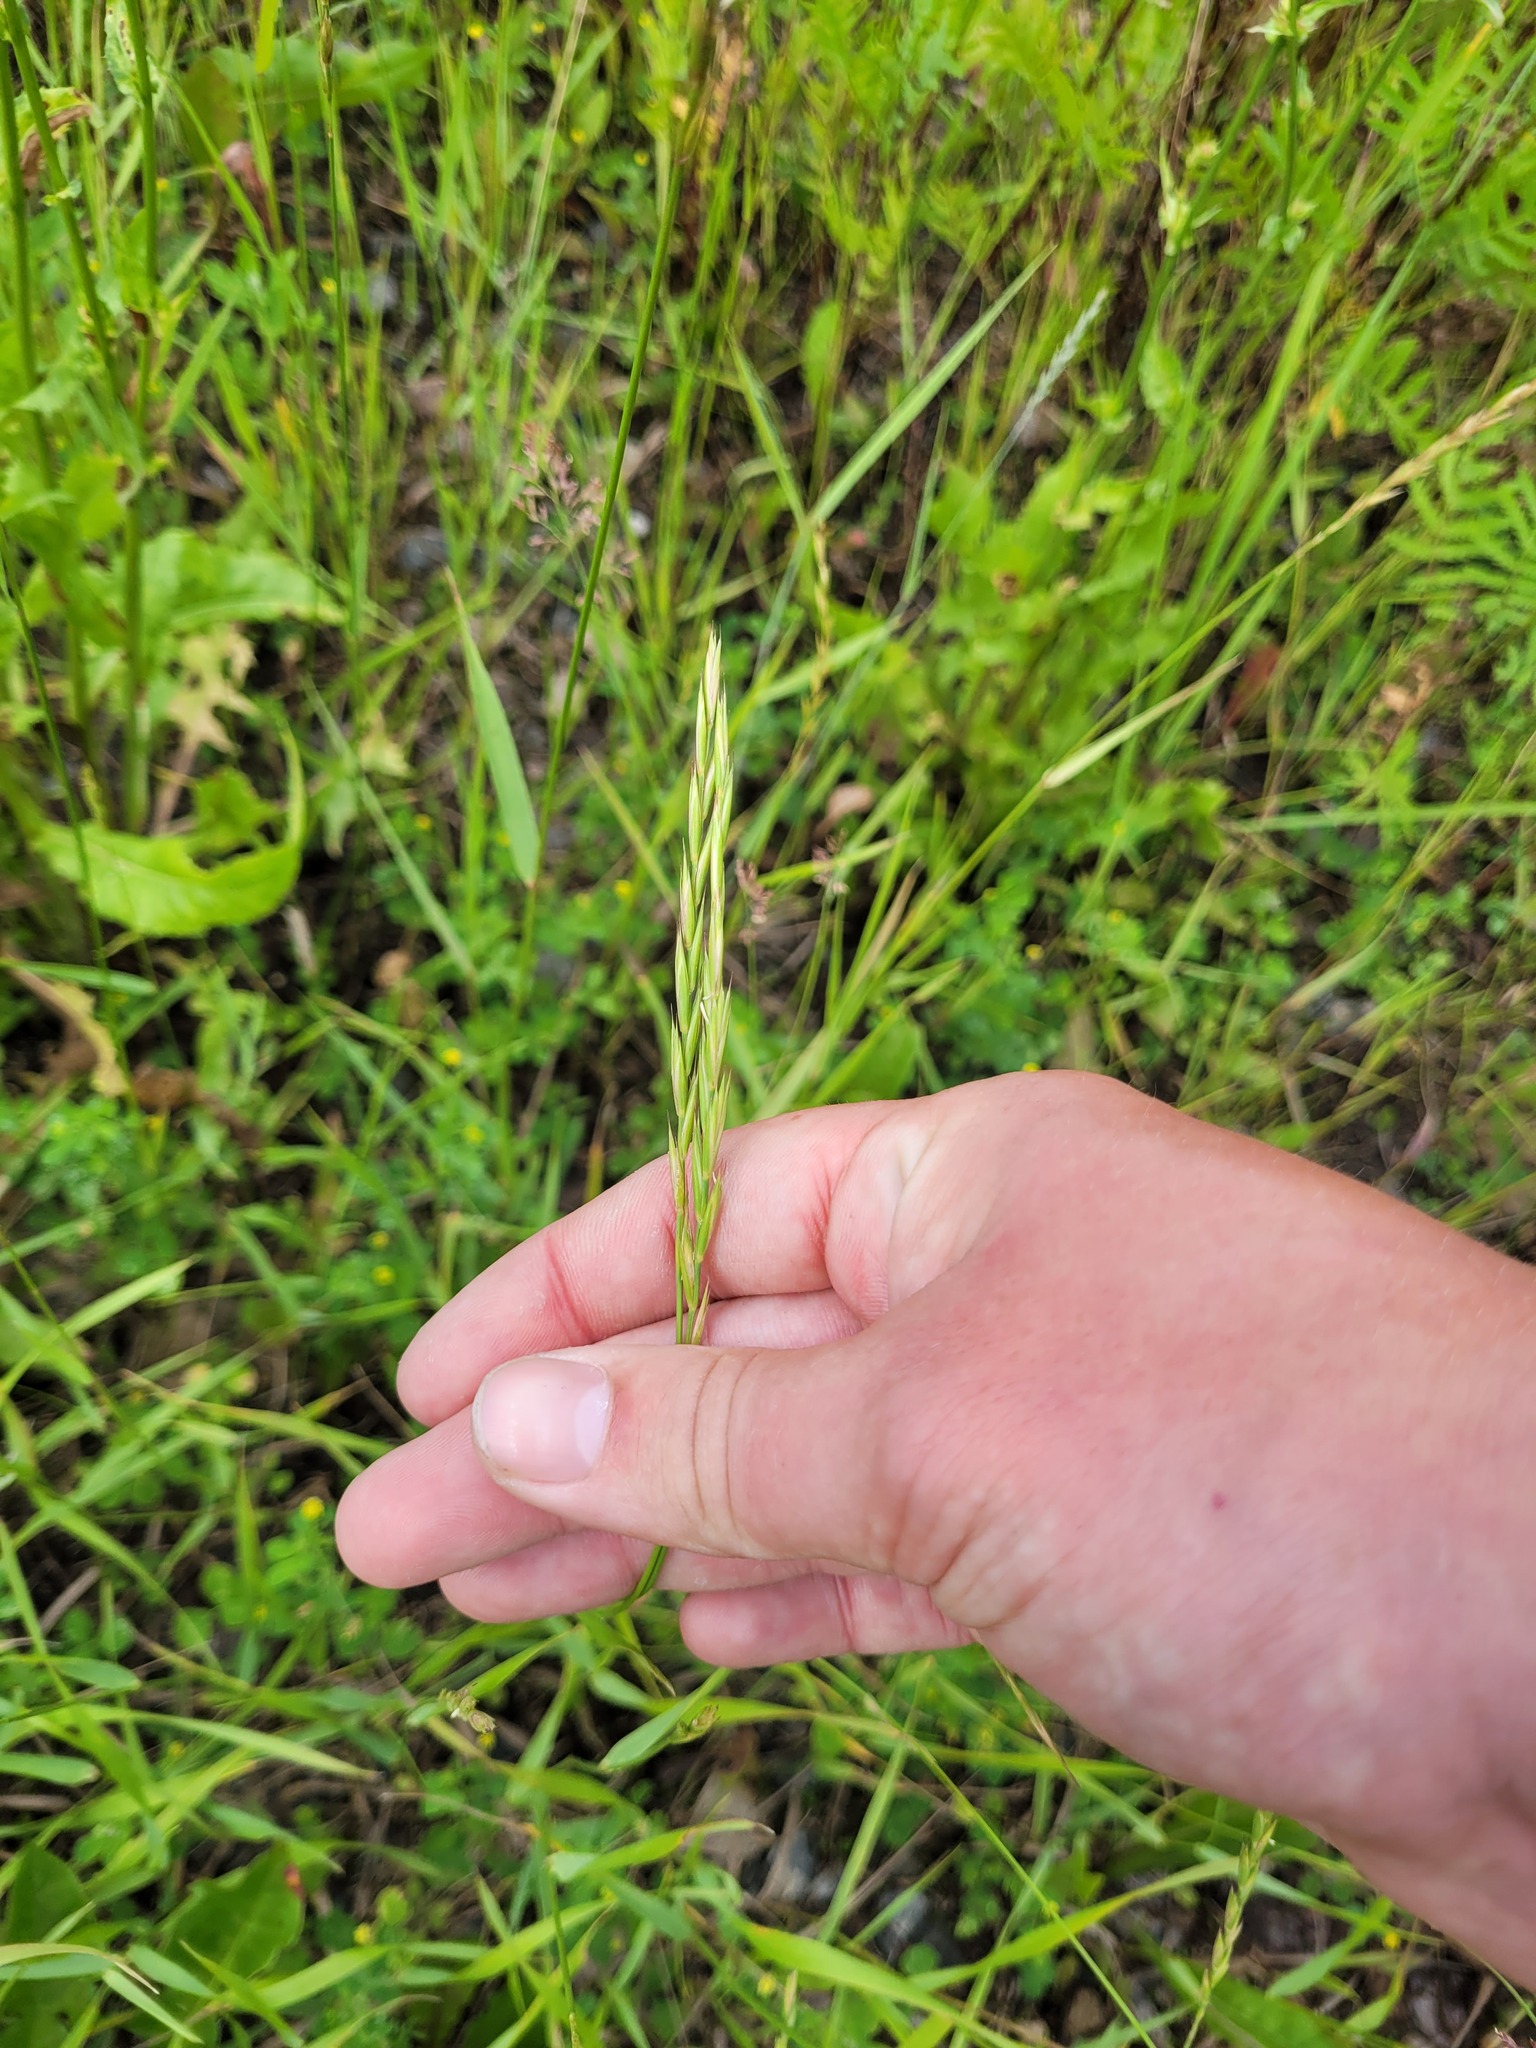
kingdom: Plantae
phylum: Tracheophyta
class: Liliopsida
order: Poales
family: Poaceae
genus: Elymus
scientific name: Elymus repens
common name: Quackgrass
